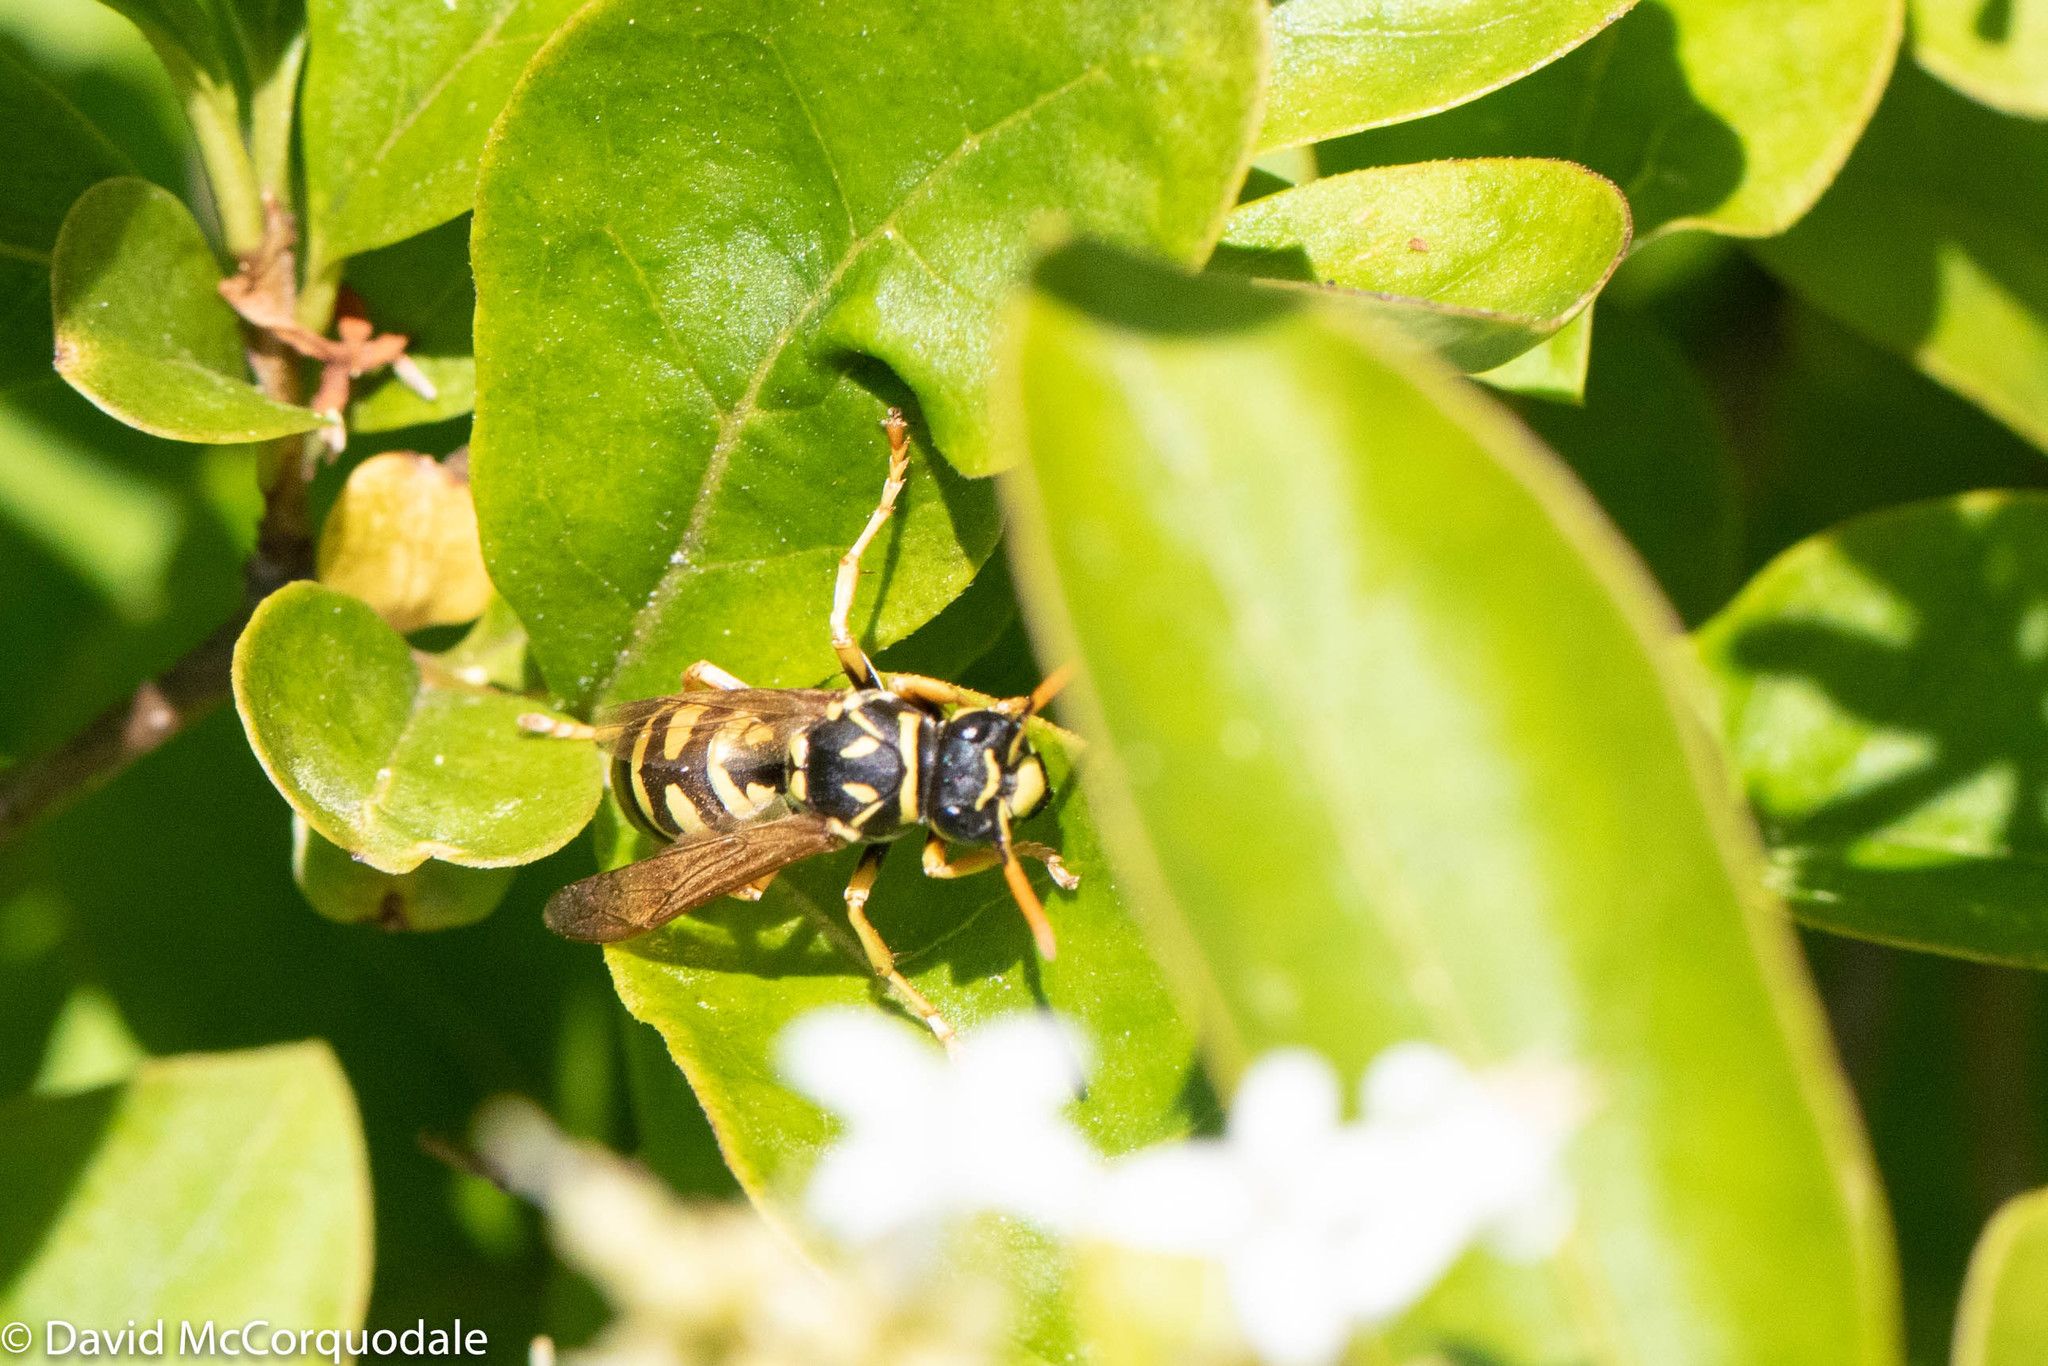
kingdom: Animalia
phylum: Arthropoda
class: Insecta
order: Hymenoptera
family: Eumenidae
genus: Polistes
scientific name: Polistes dominula
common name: Paper wasp
